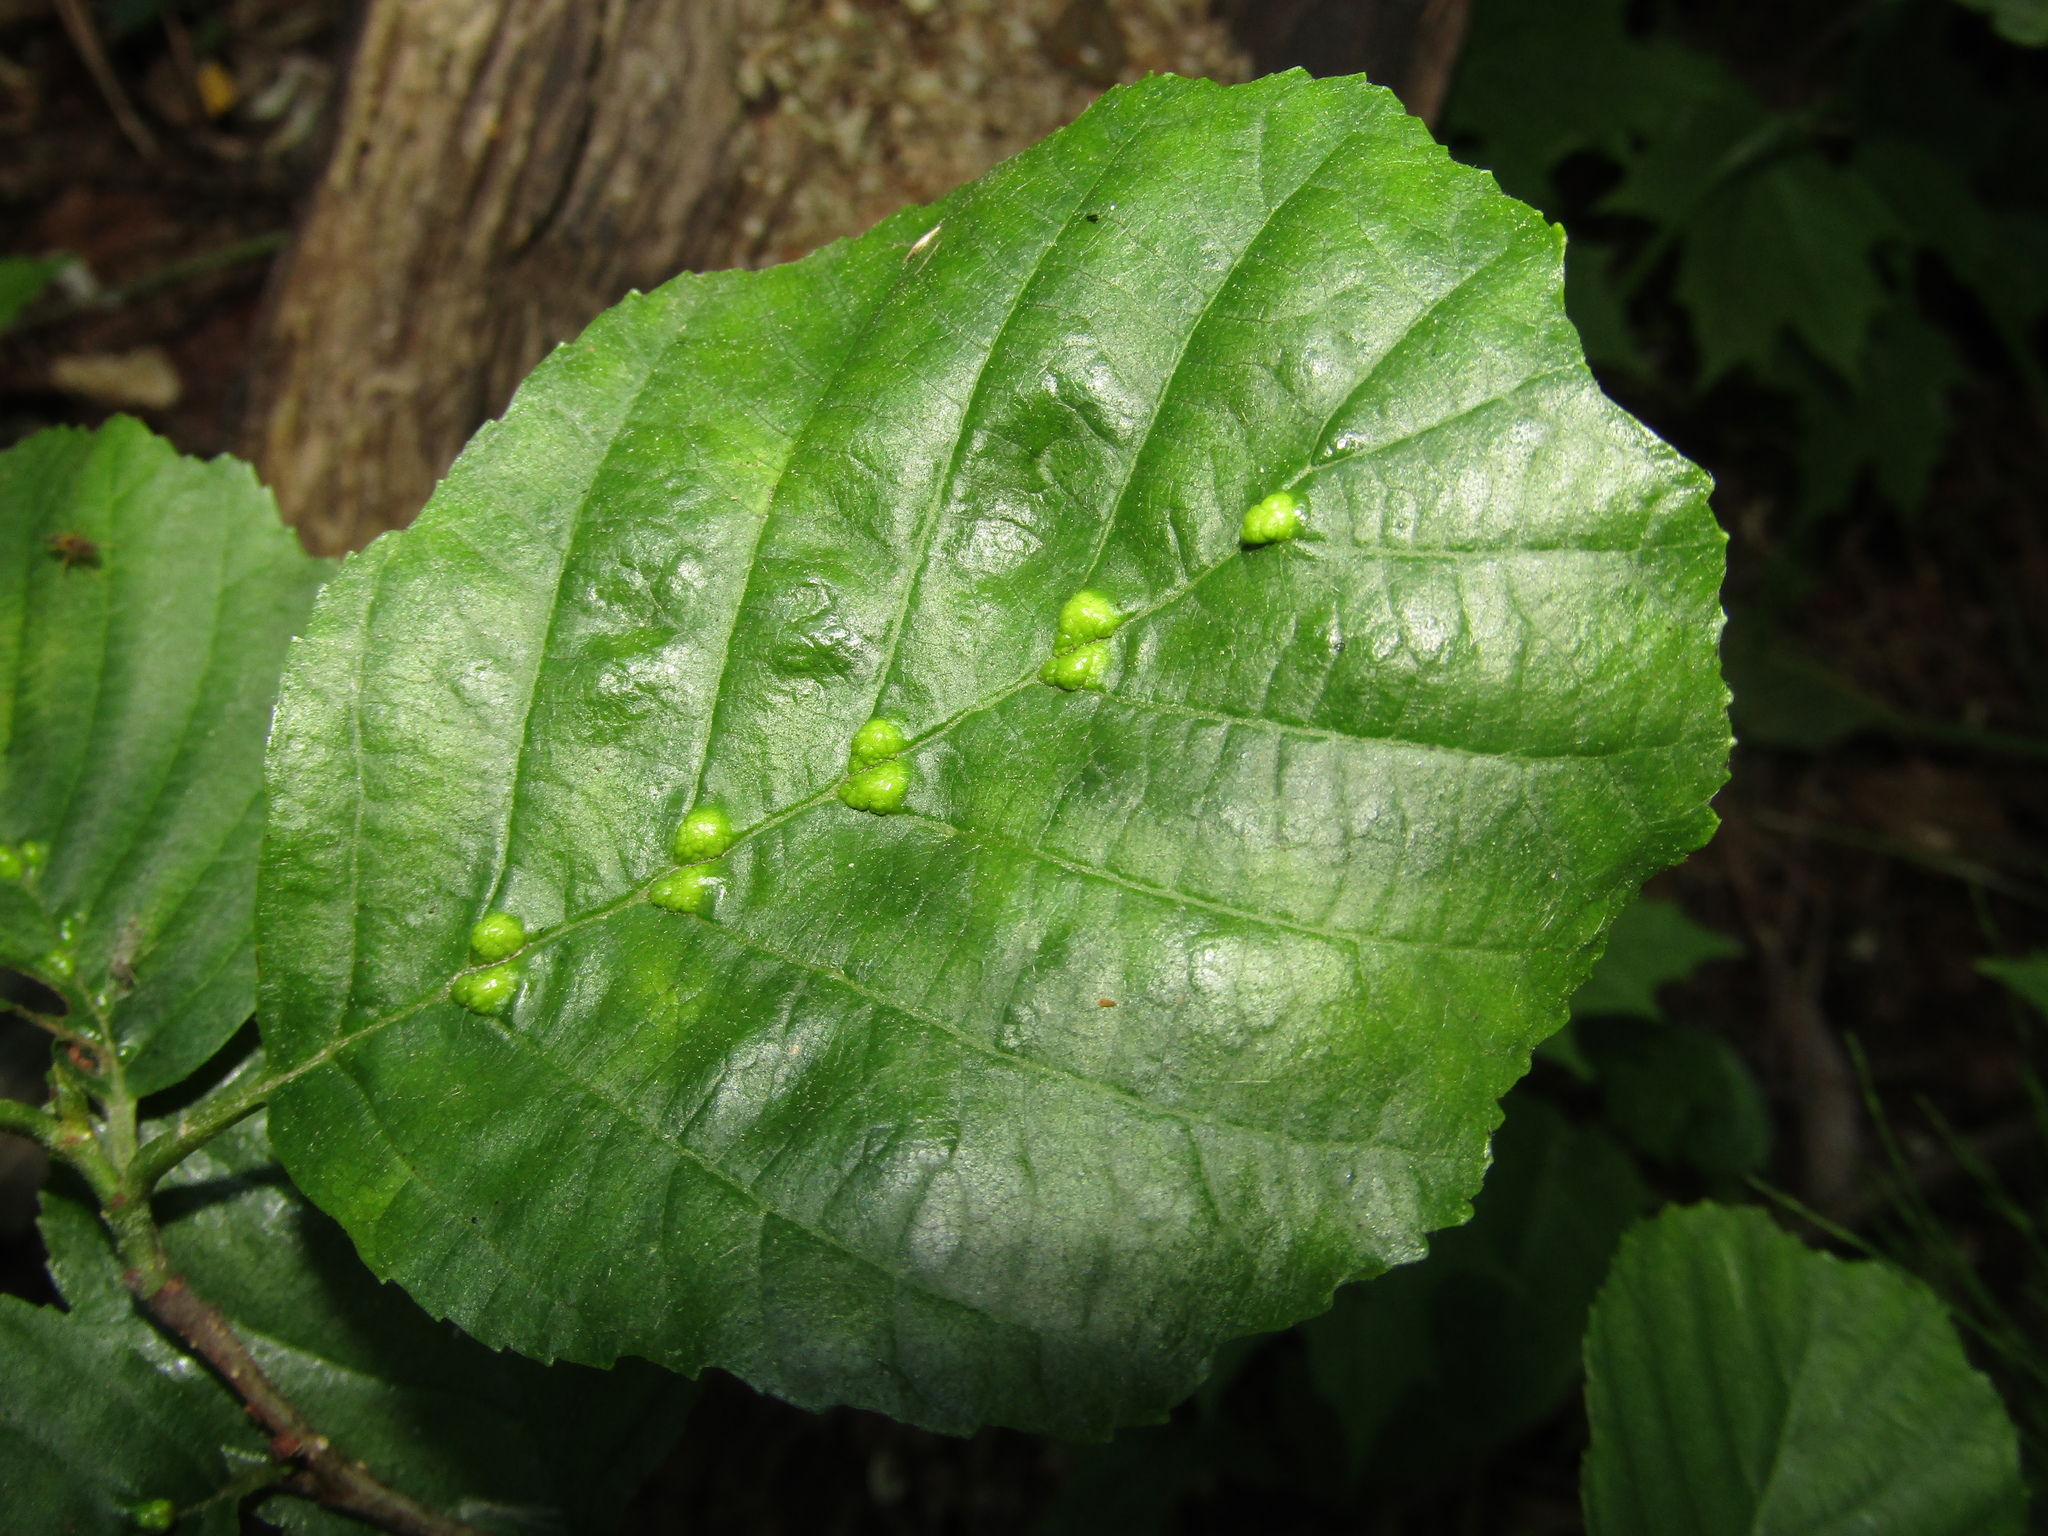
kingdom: Plantae
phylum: Tracheophyta
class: Magnoliopsida
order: Fagales
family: Betulaceae
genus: Alnus
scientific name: Alnus glutinosa
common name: Black alder
